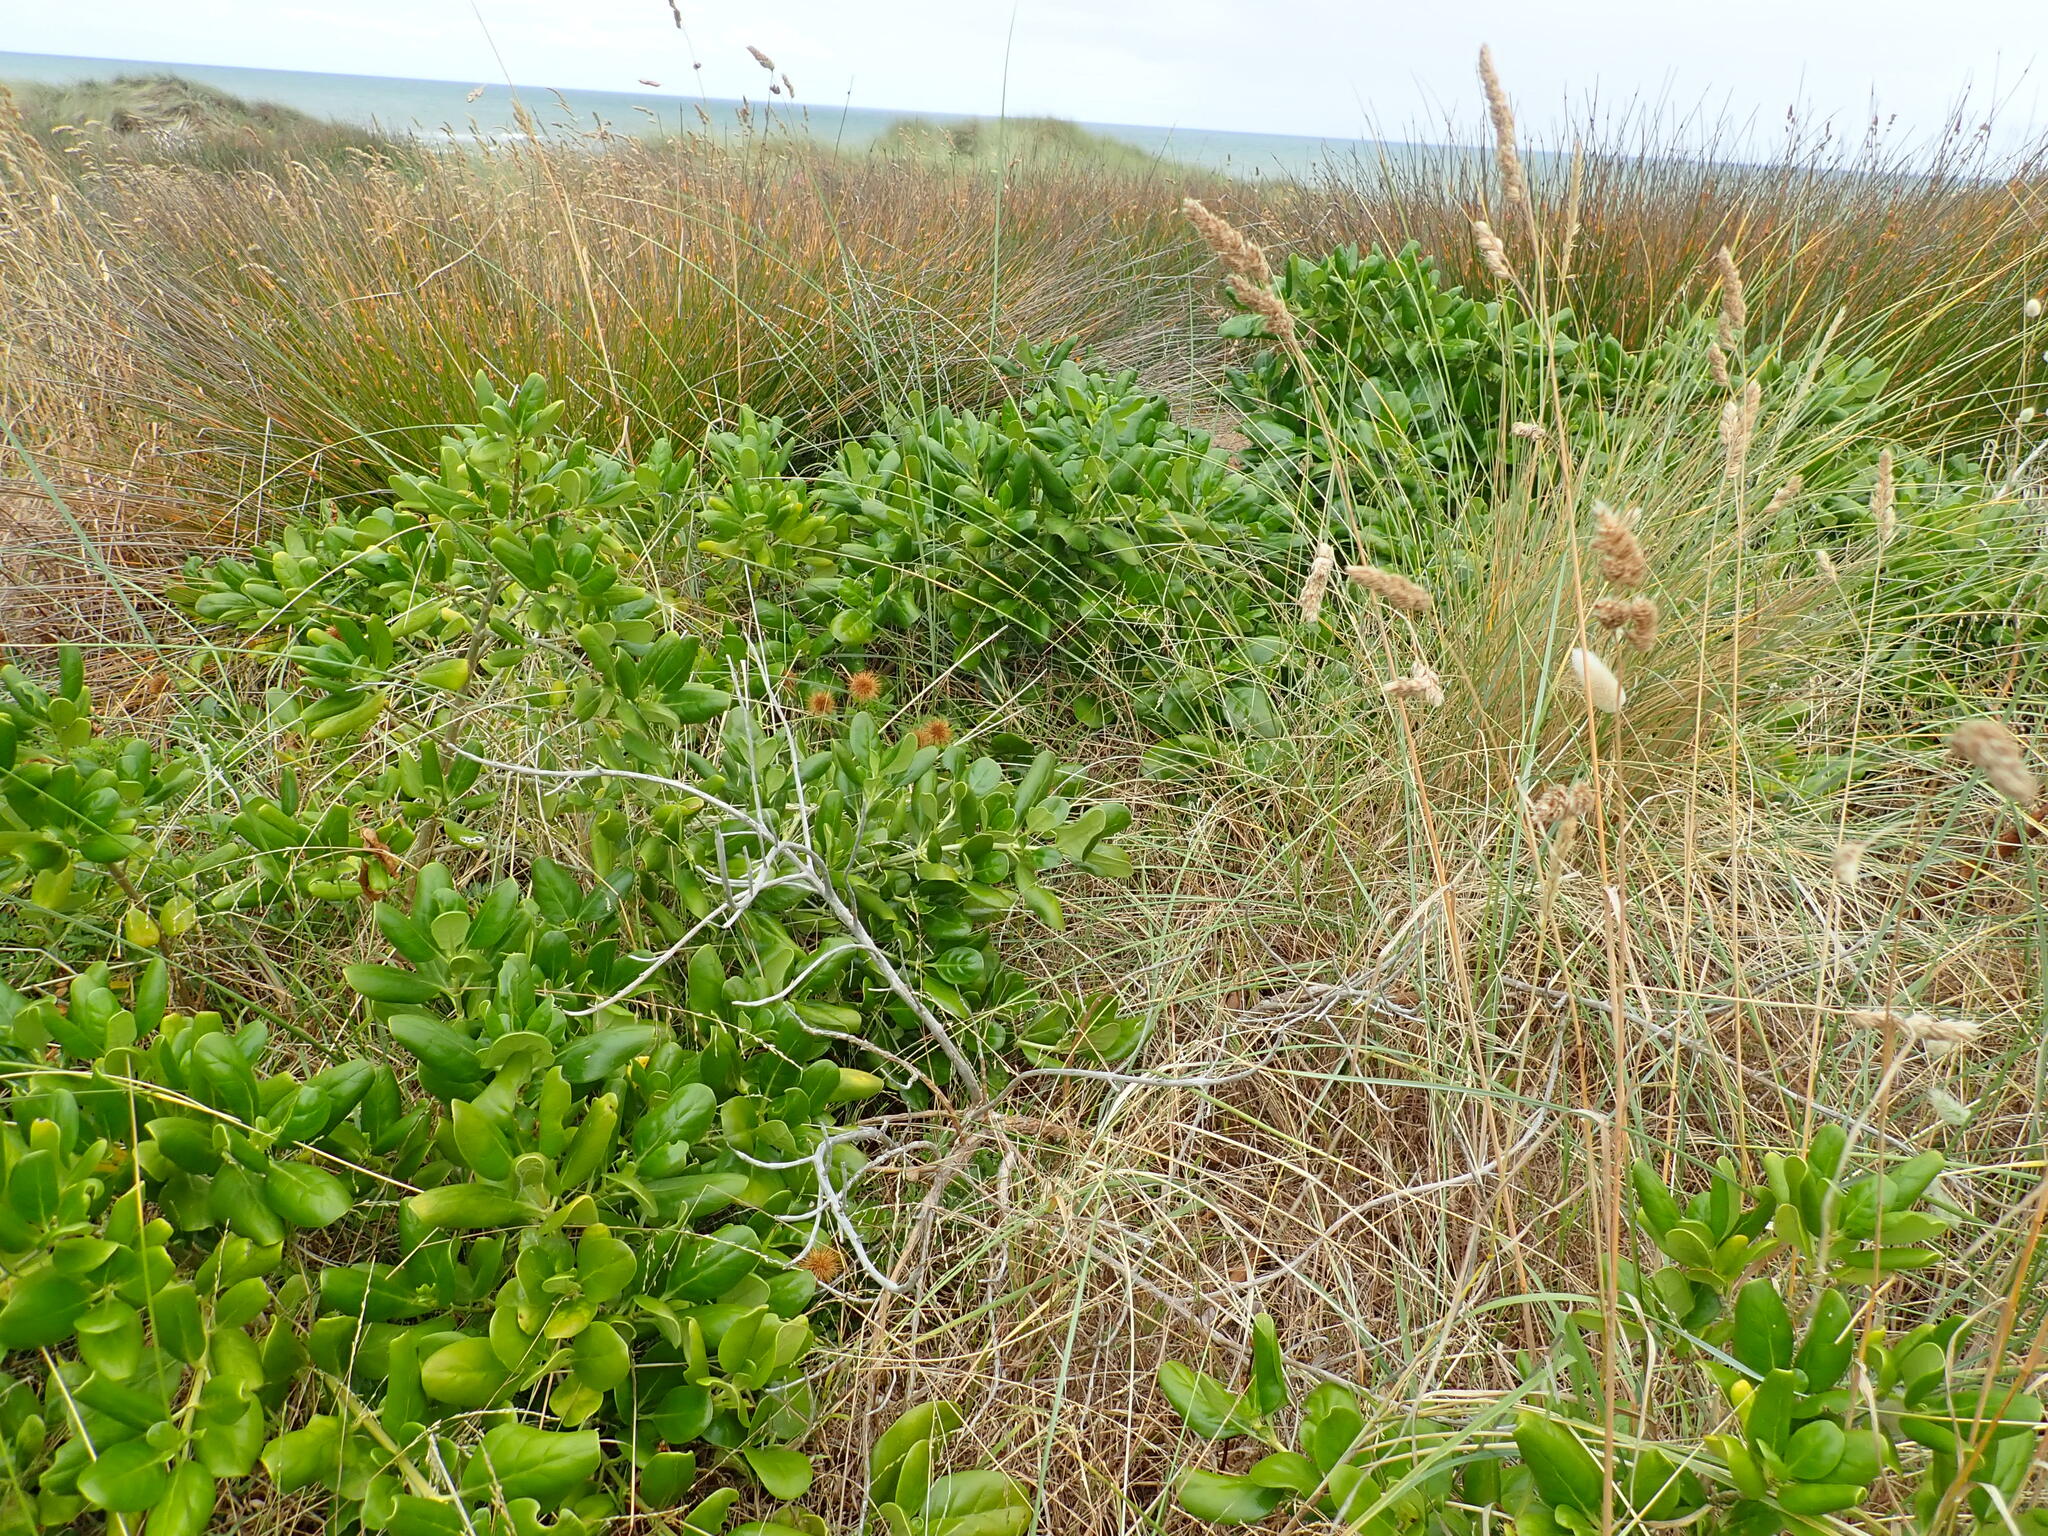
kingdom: Plantae
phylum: Tracheophyta
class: Magnoliopsida
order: Gentianales
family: Rubiaceae
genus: Coprosma
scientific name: Coprosma repens
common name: Tree bedstraw
